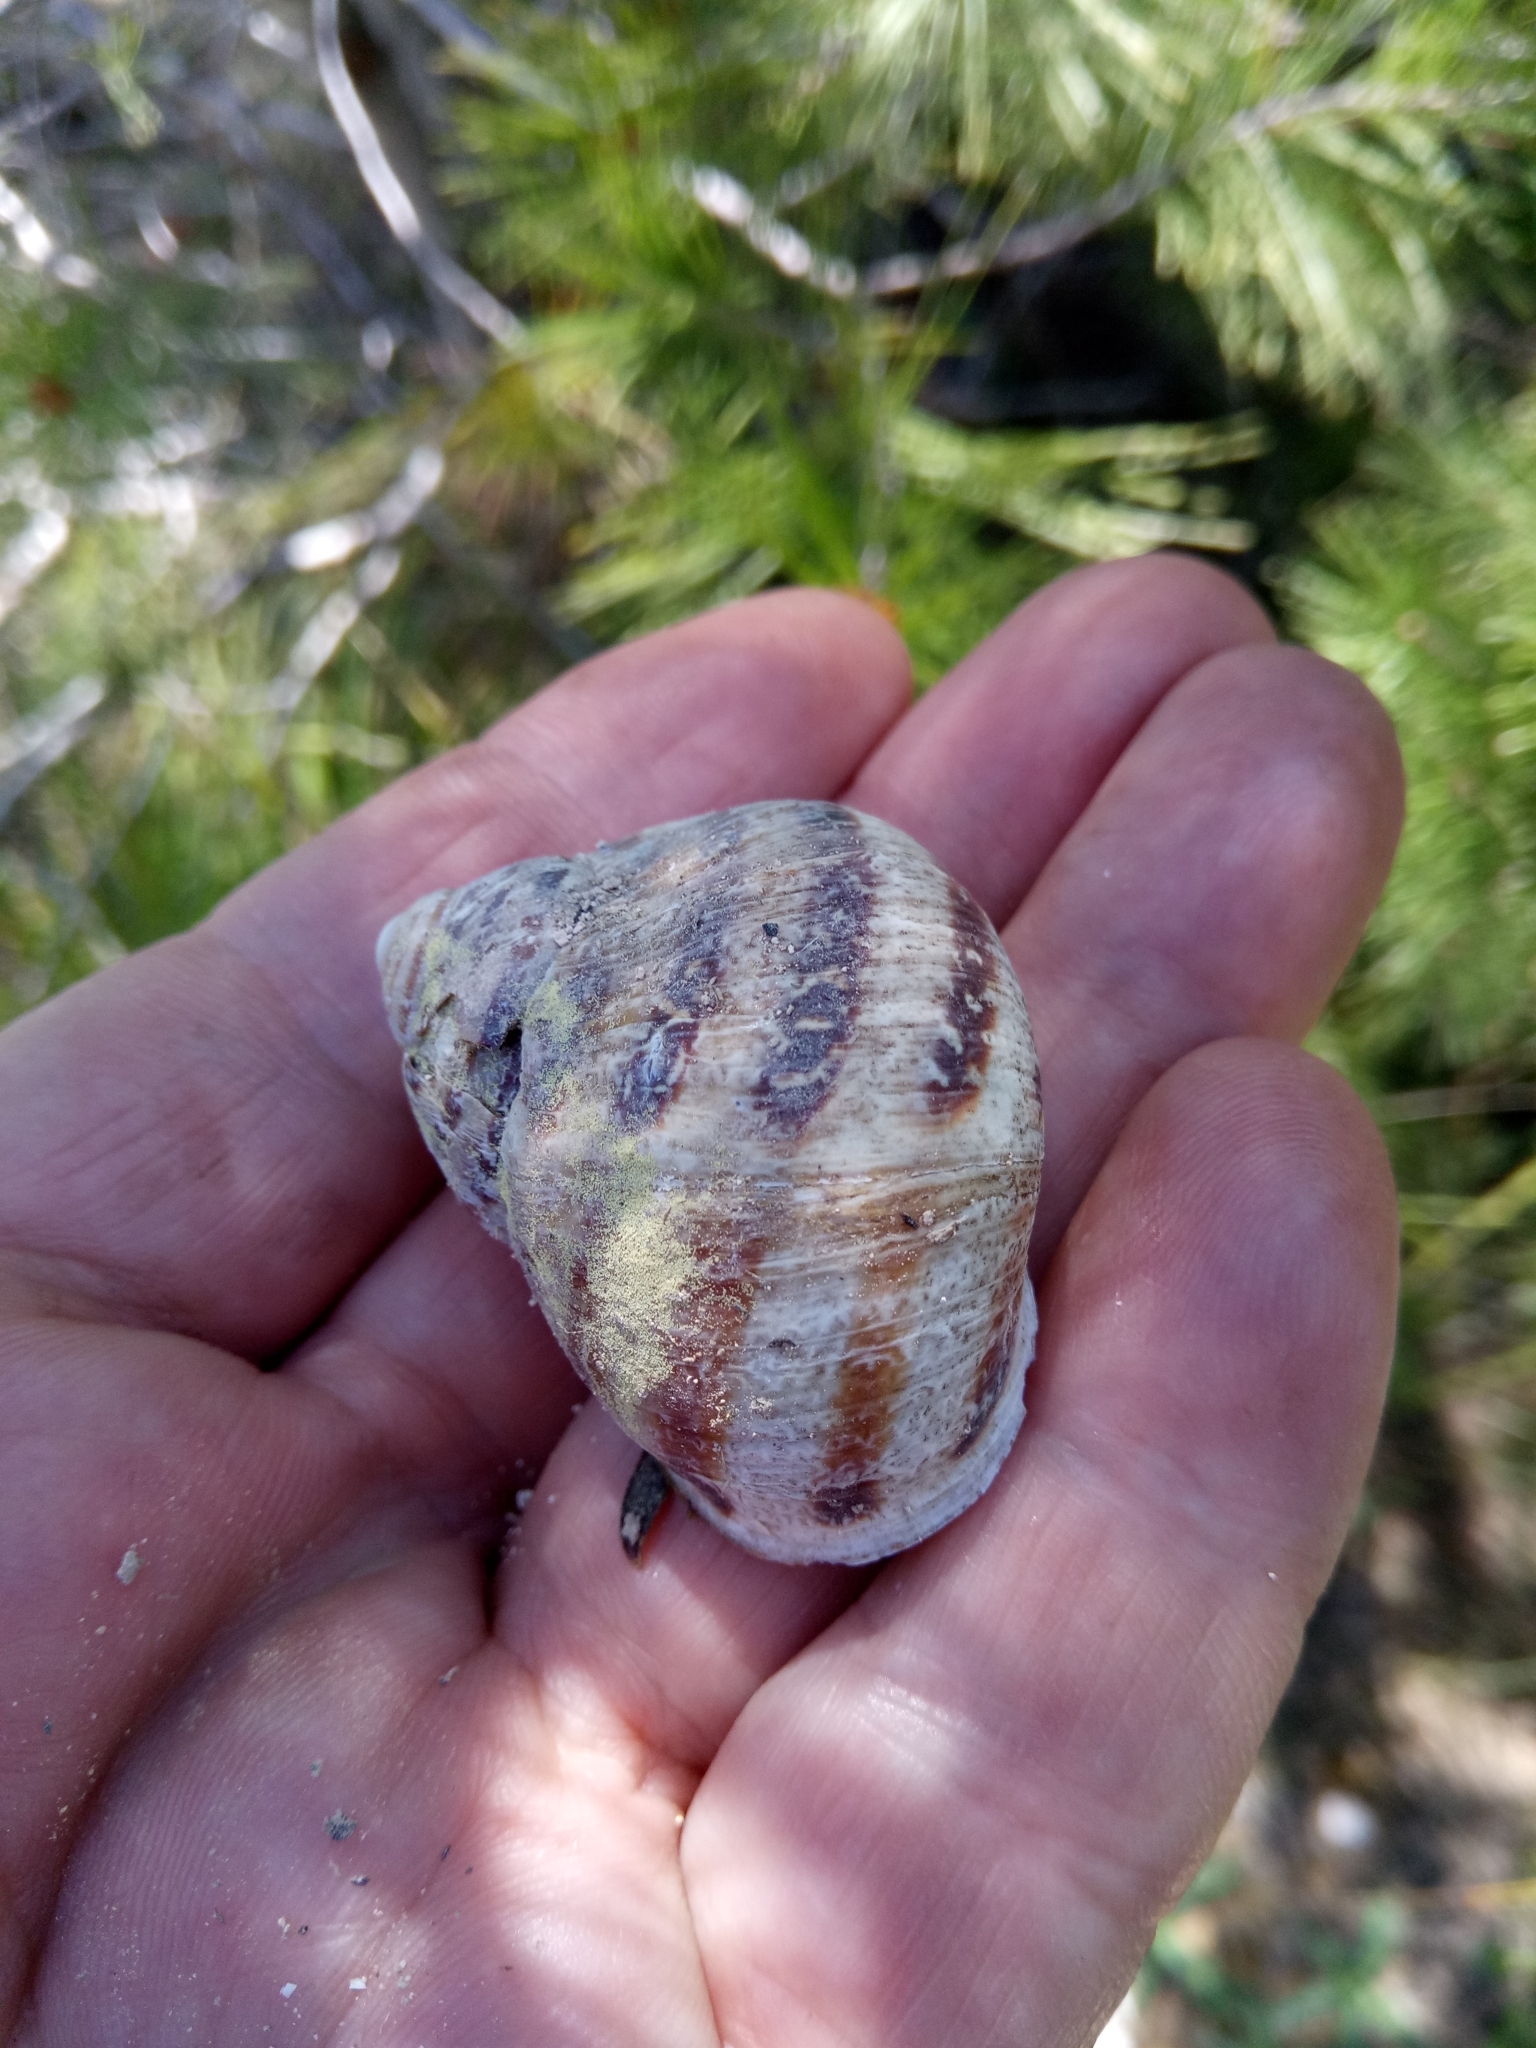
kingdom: Animalia
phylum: Mollusca
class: Gastropoda
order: Stylommatophora
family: Helicidae
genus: Cornu
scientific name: Cornu aspersum
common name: Brown garden snail
